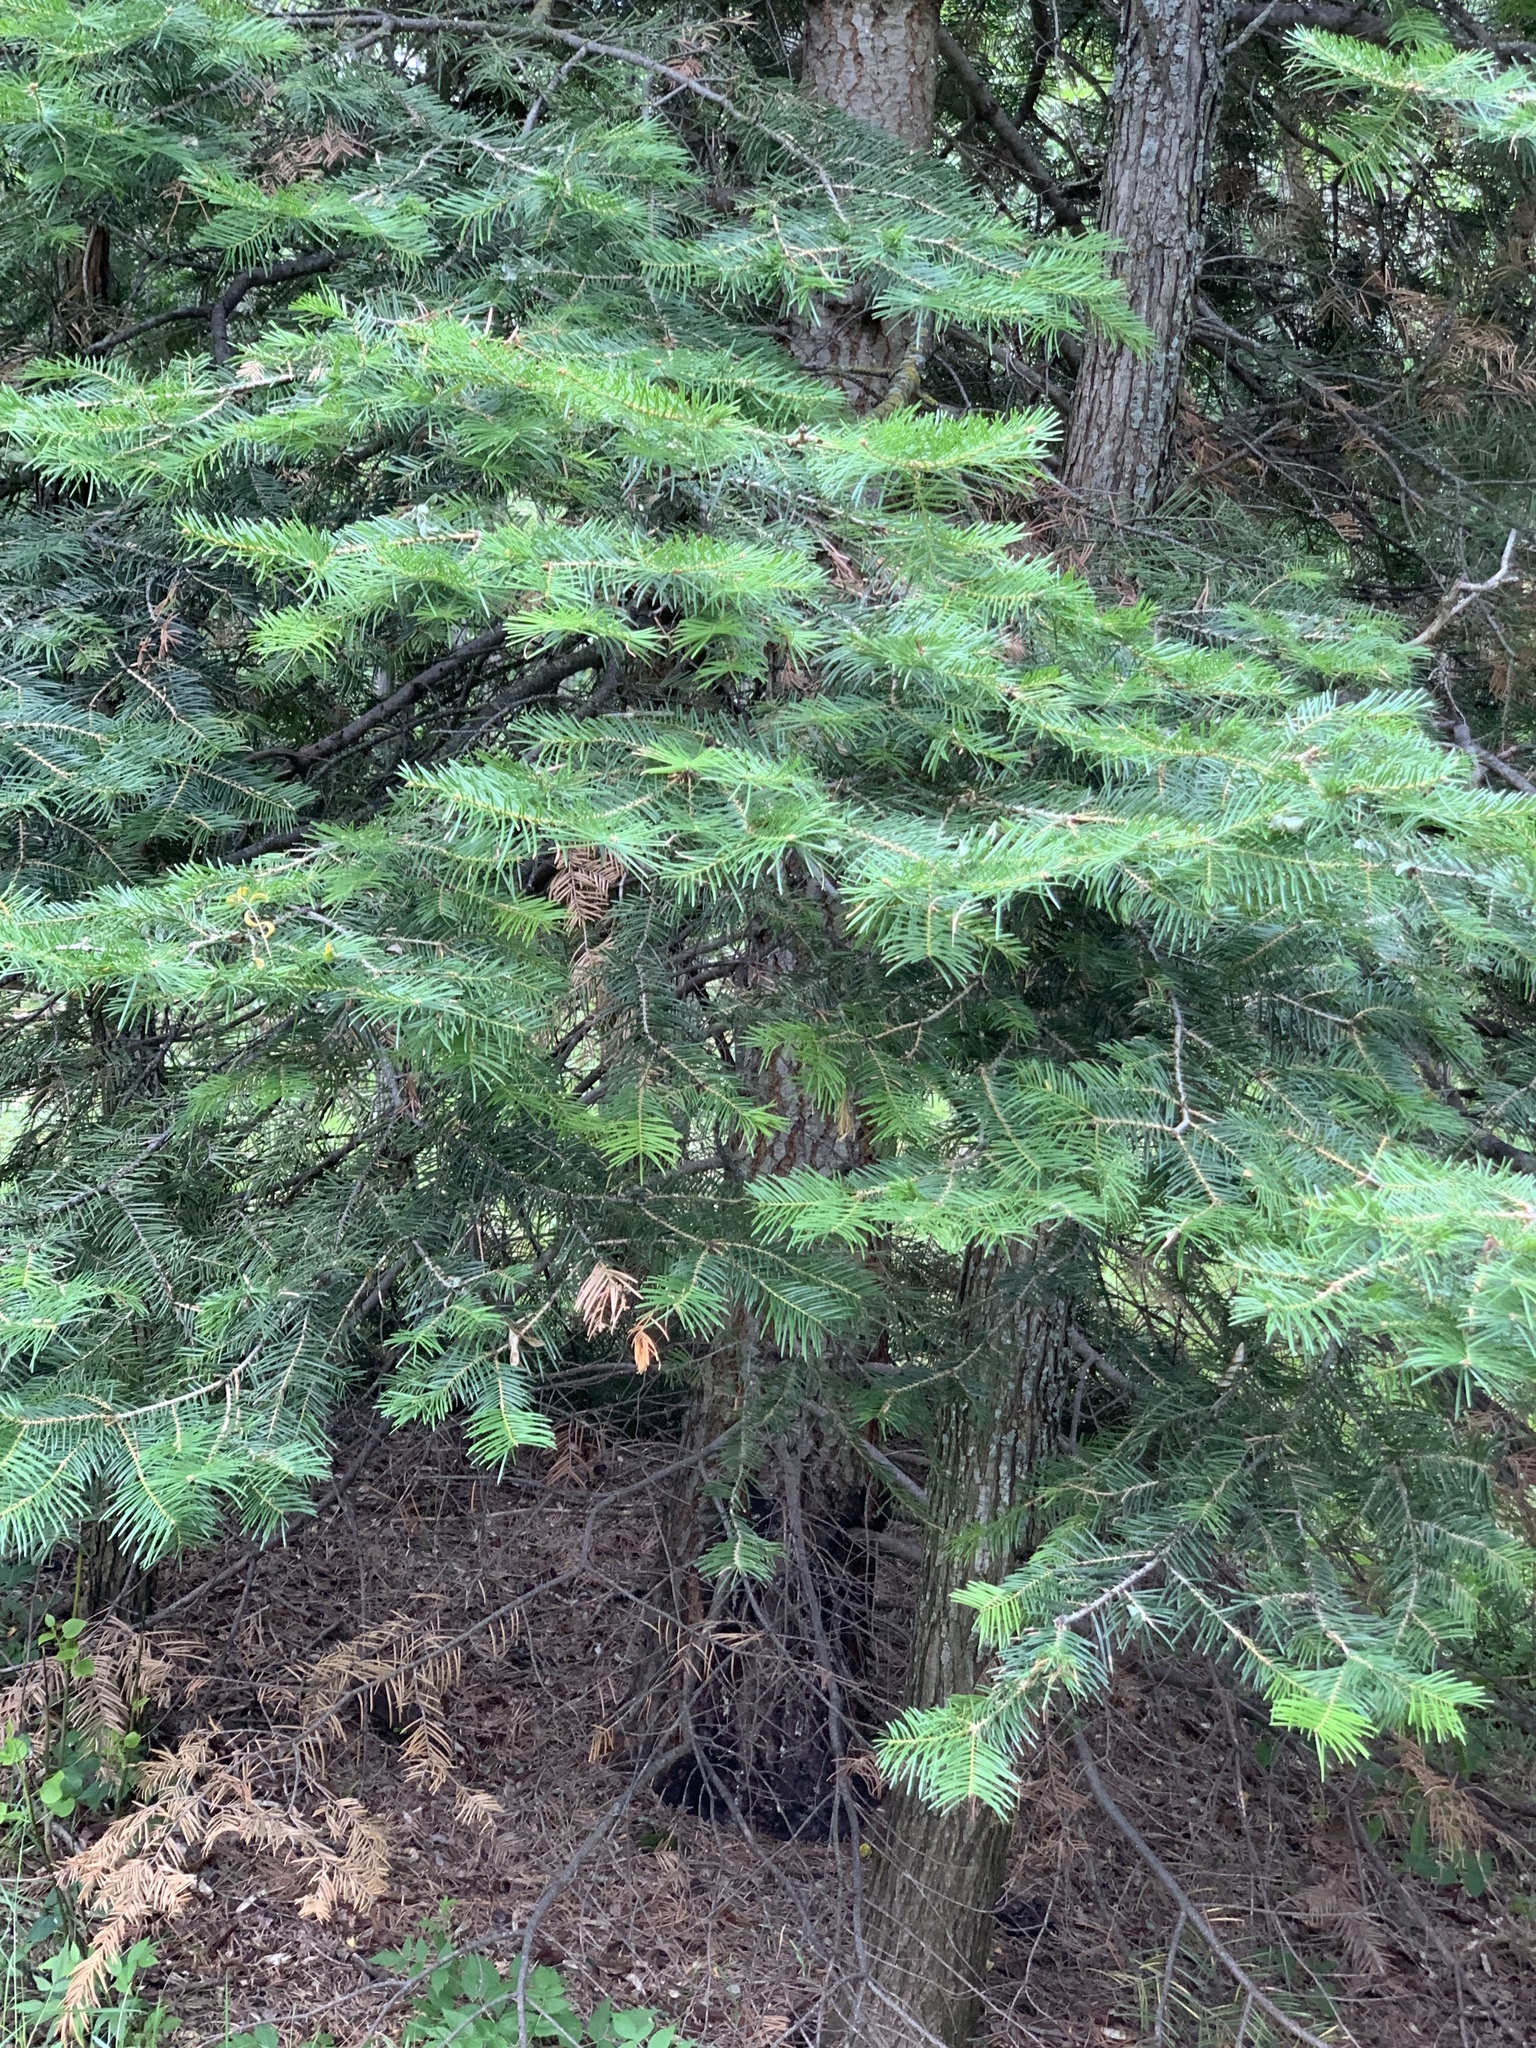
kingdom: Plantae
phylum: Tracheophyta
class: Pinopsida
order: Pinales
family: Pinaceae
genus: Abies
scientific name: Abies concolor
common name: Colorado fir
